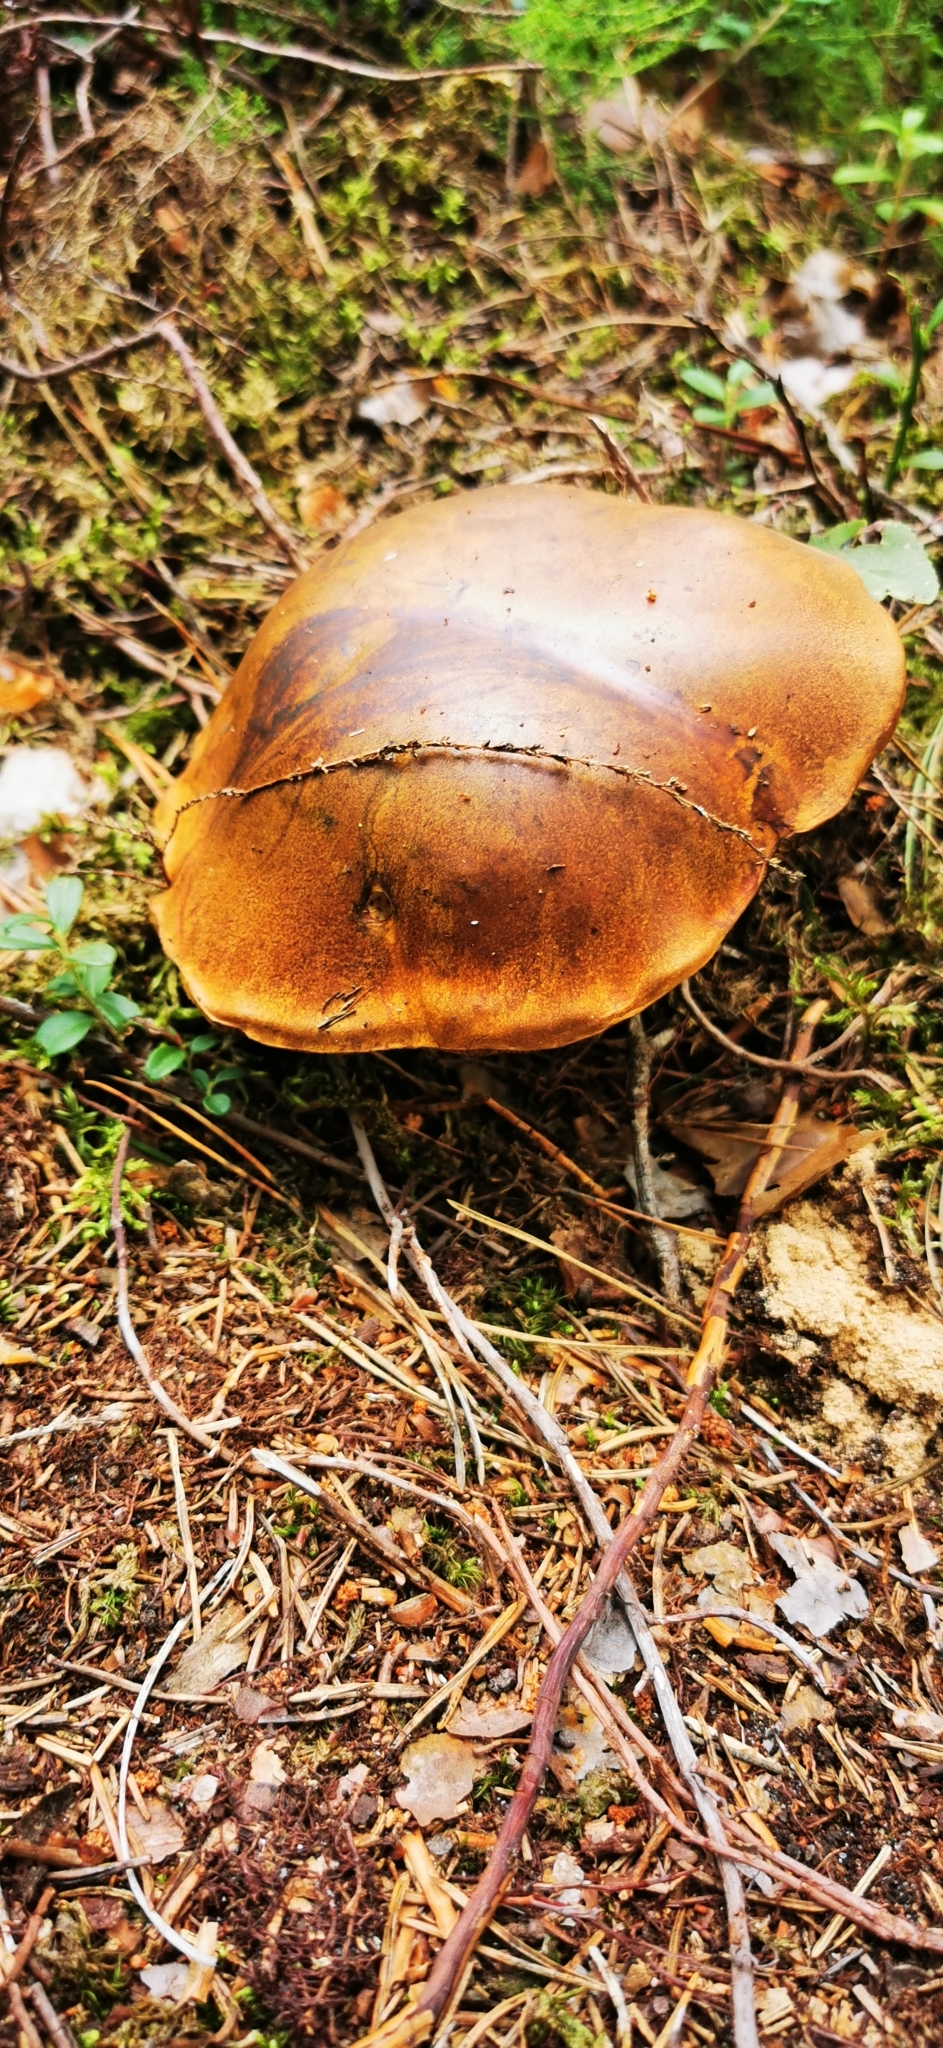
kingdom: Fungi
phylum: Basidiomycota
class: Agaricomycetes
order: Boletales
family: Boletaceae
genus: Imleria
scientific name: Imleria badia
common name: Bay bolete
